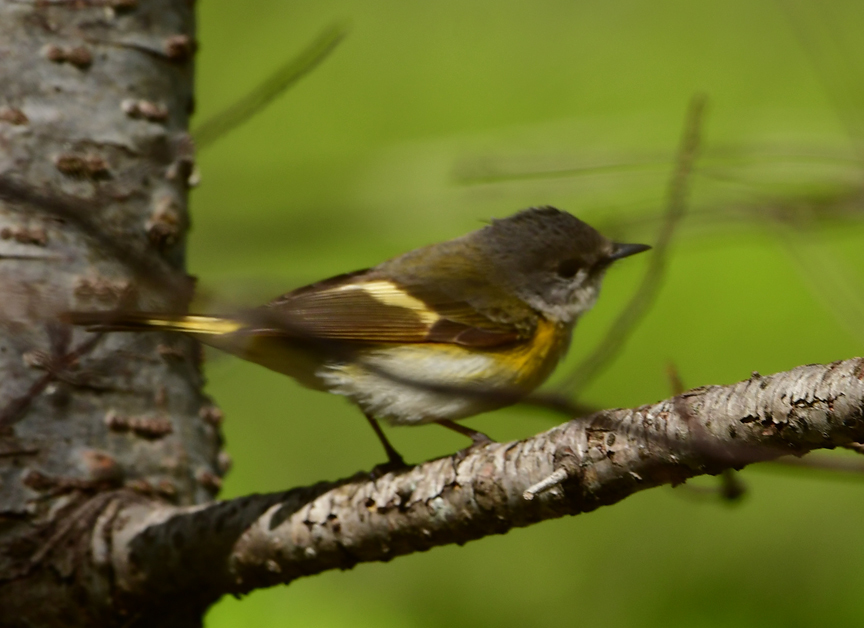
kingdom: Animalia
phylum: Chordata
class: Aves
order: Passeriformes
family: Parulidae
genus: Setophaga
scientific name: Setophaga ruticilla
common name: American redstart
